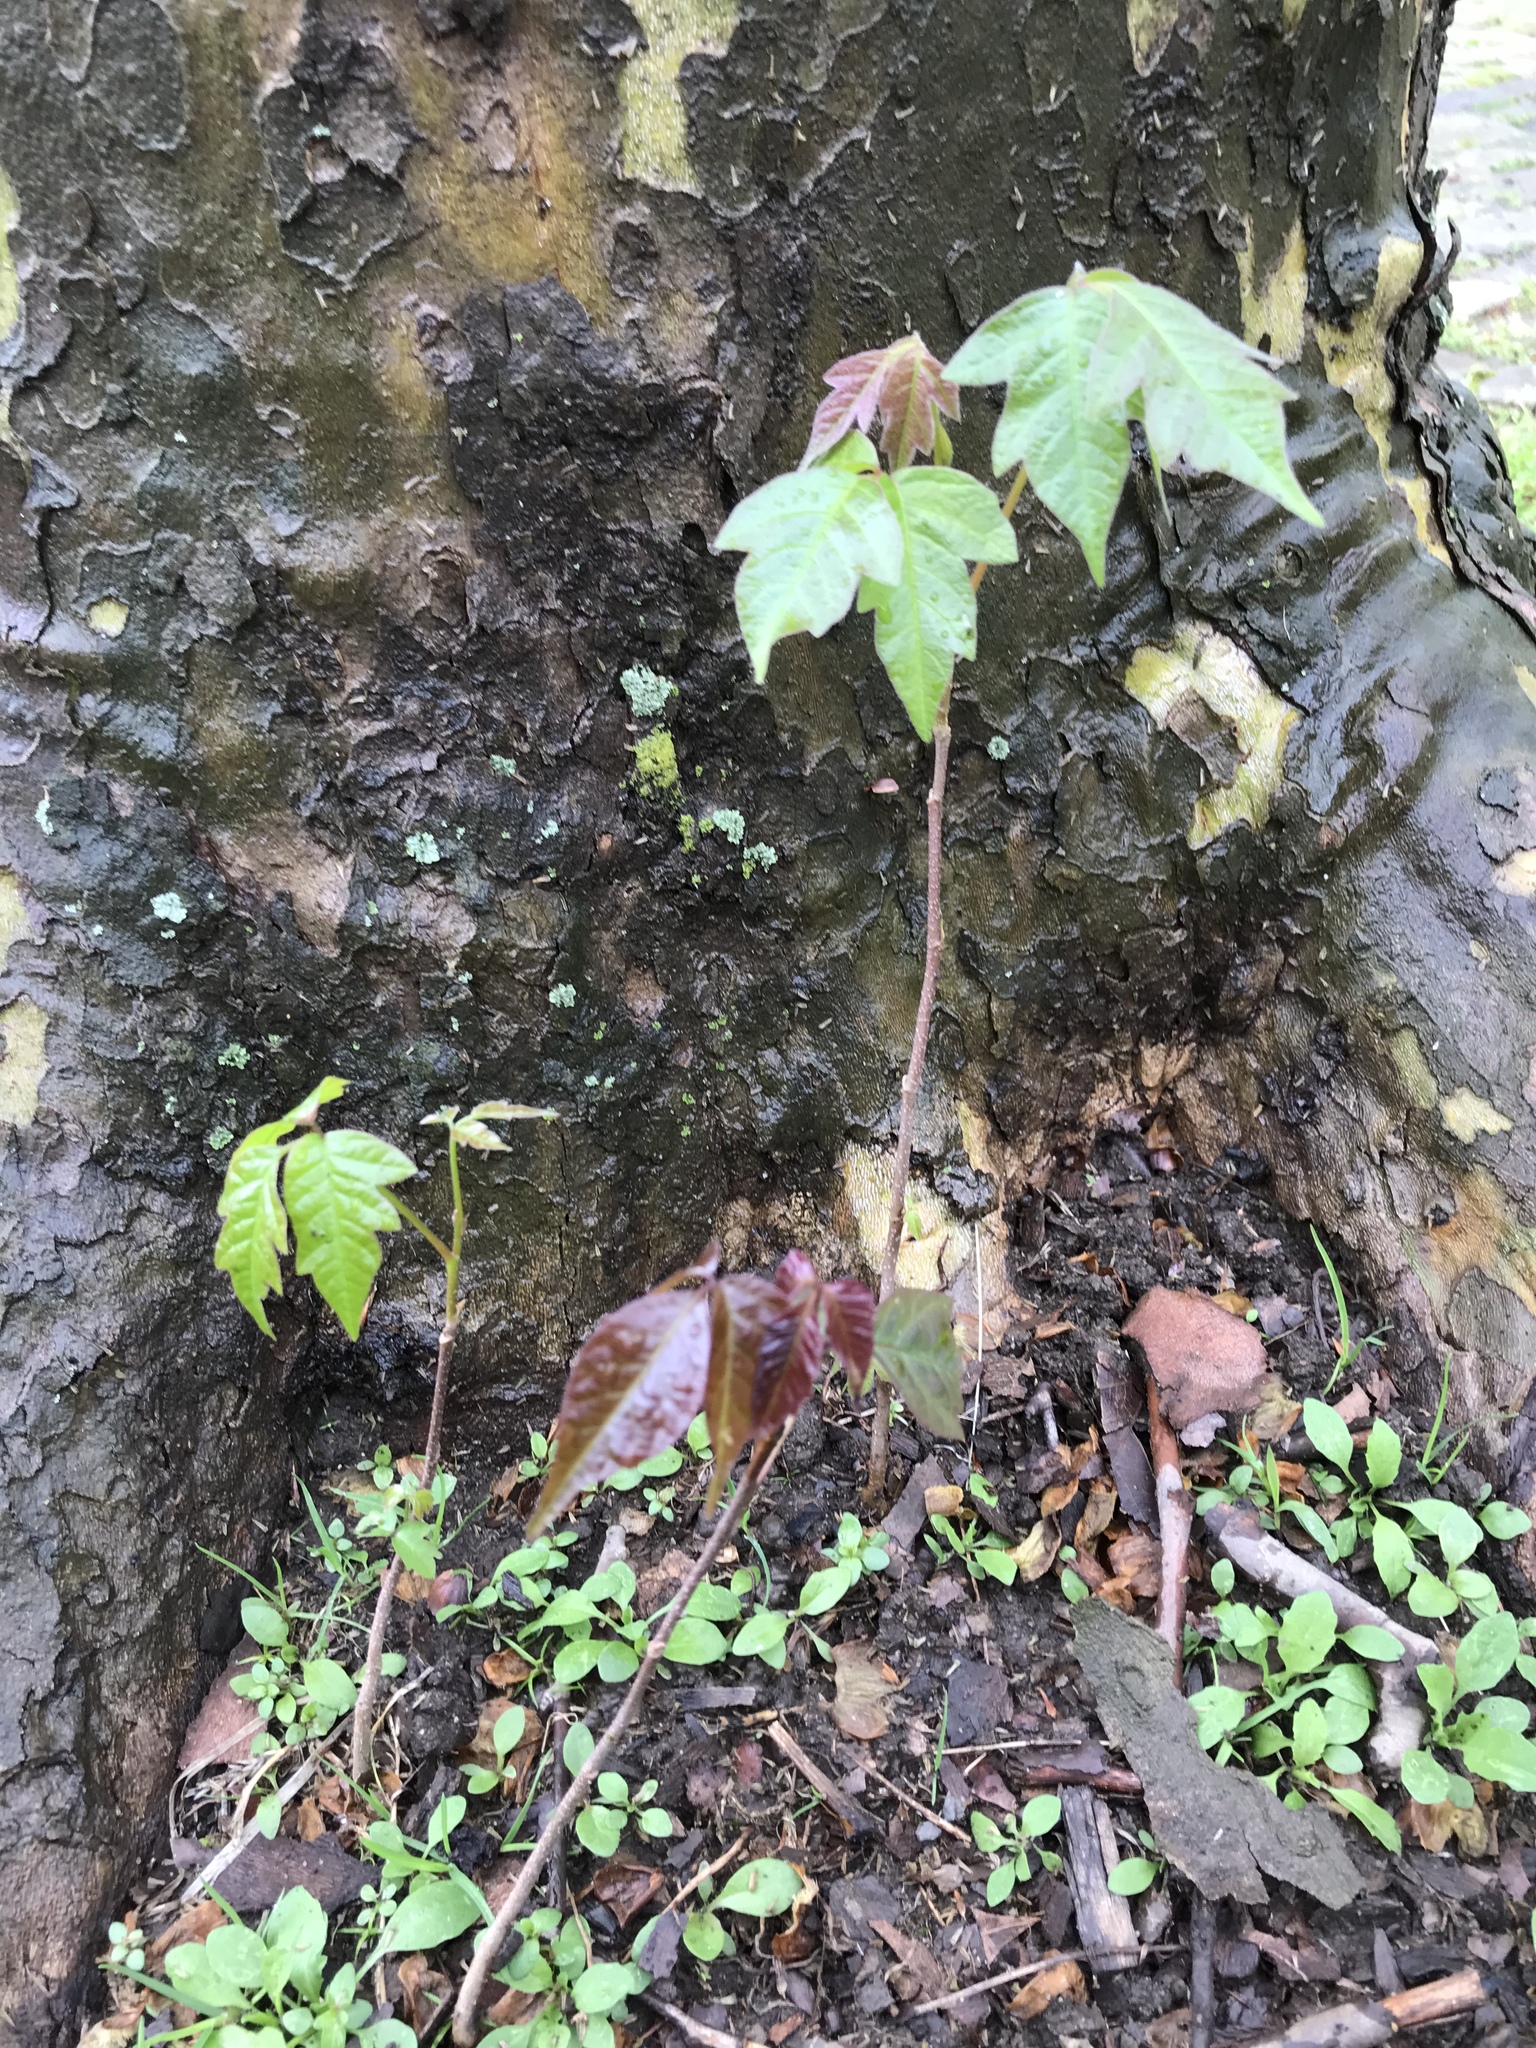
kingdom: Plantae
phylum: Tracheophyta
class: Magnoliopsida
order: Sapindales
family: Anacardiaceae
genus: Toxicodendron
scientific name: Toxicodendron radicans
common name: Poison ivy
